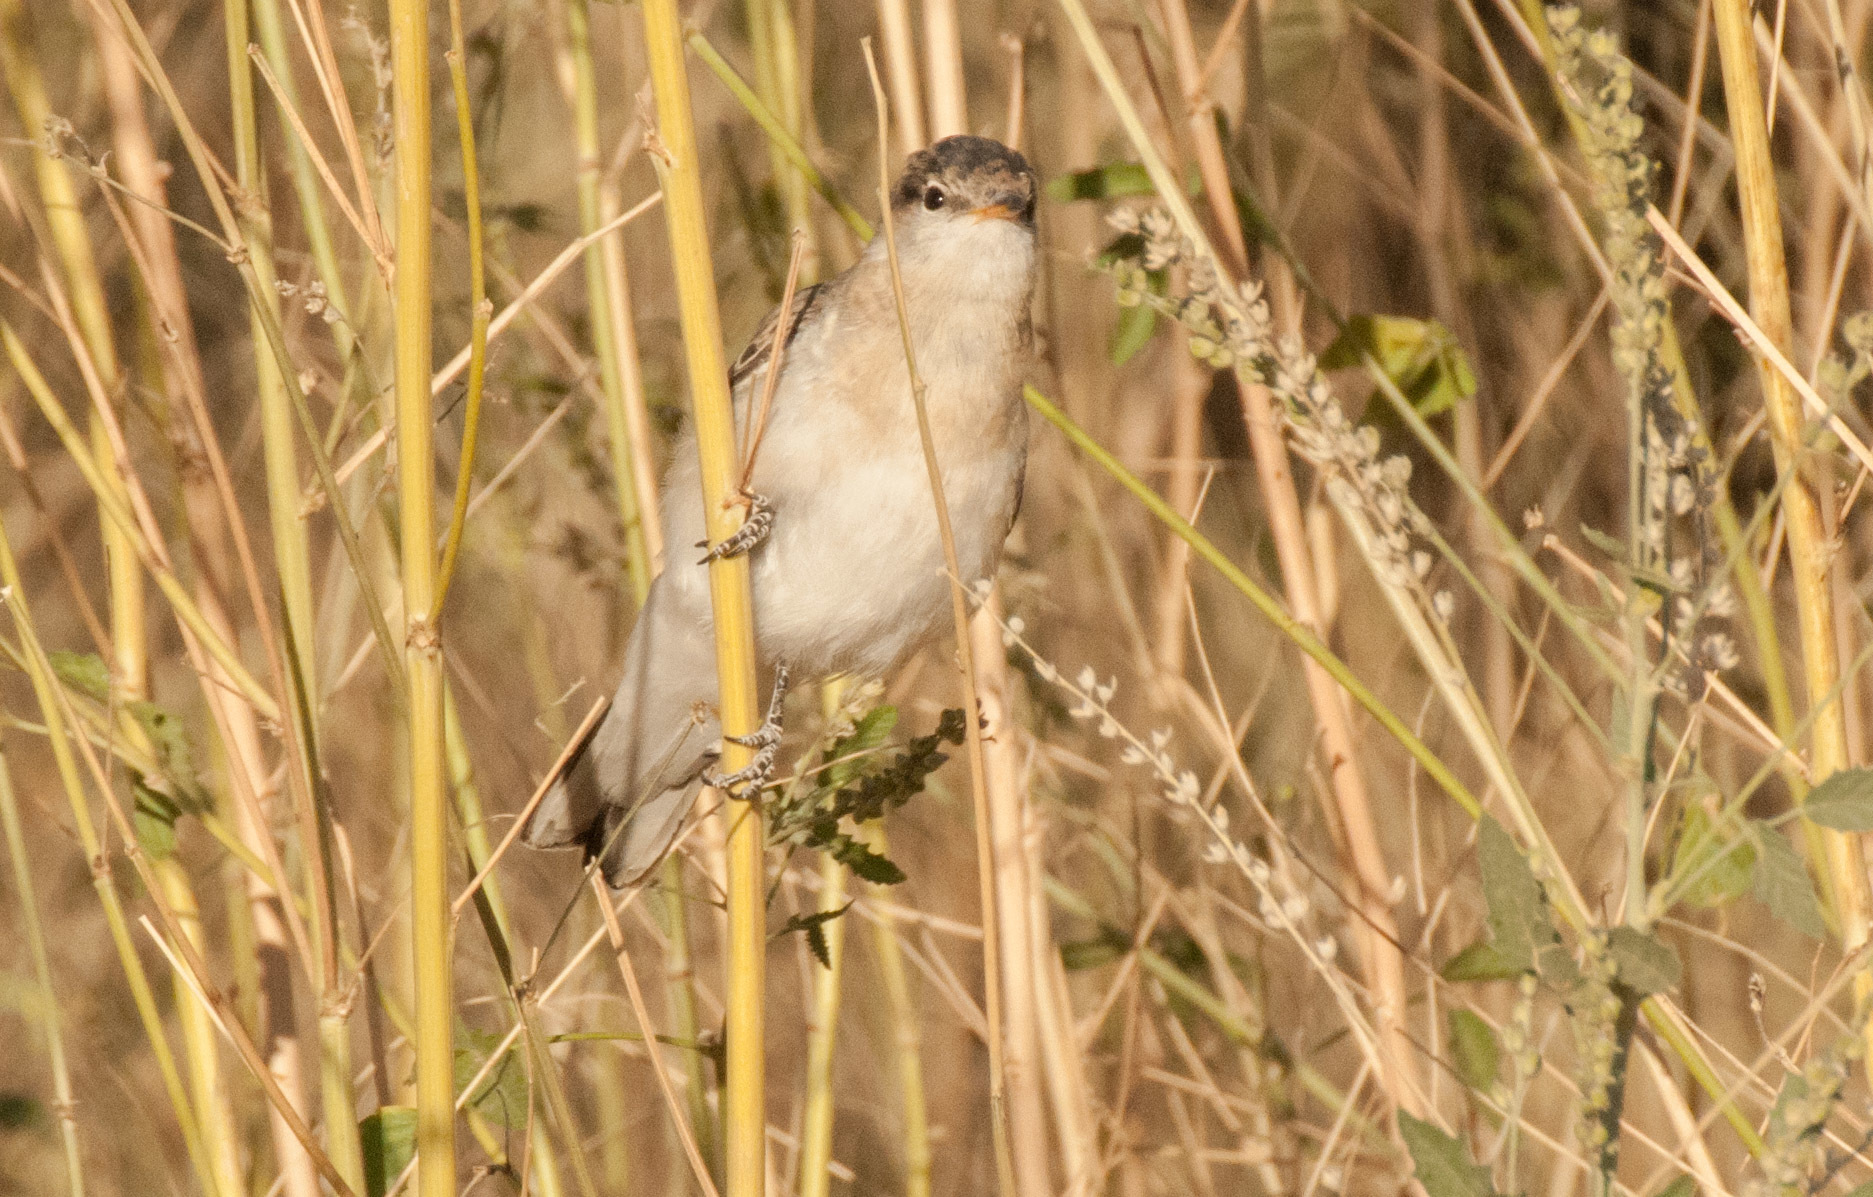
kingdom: Animalia
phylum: Chordata
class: Aves
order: Passeriformes
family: Campephagidae
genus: Lalage
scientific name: Lalage tricolor
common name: White-winged triller
